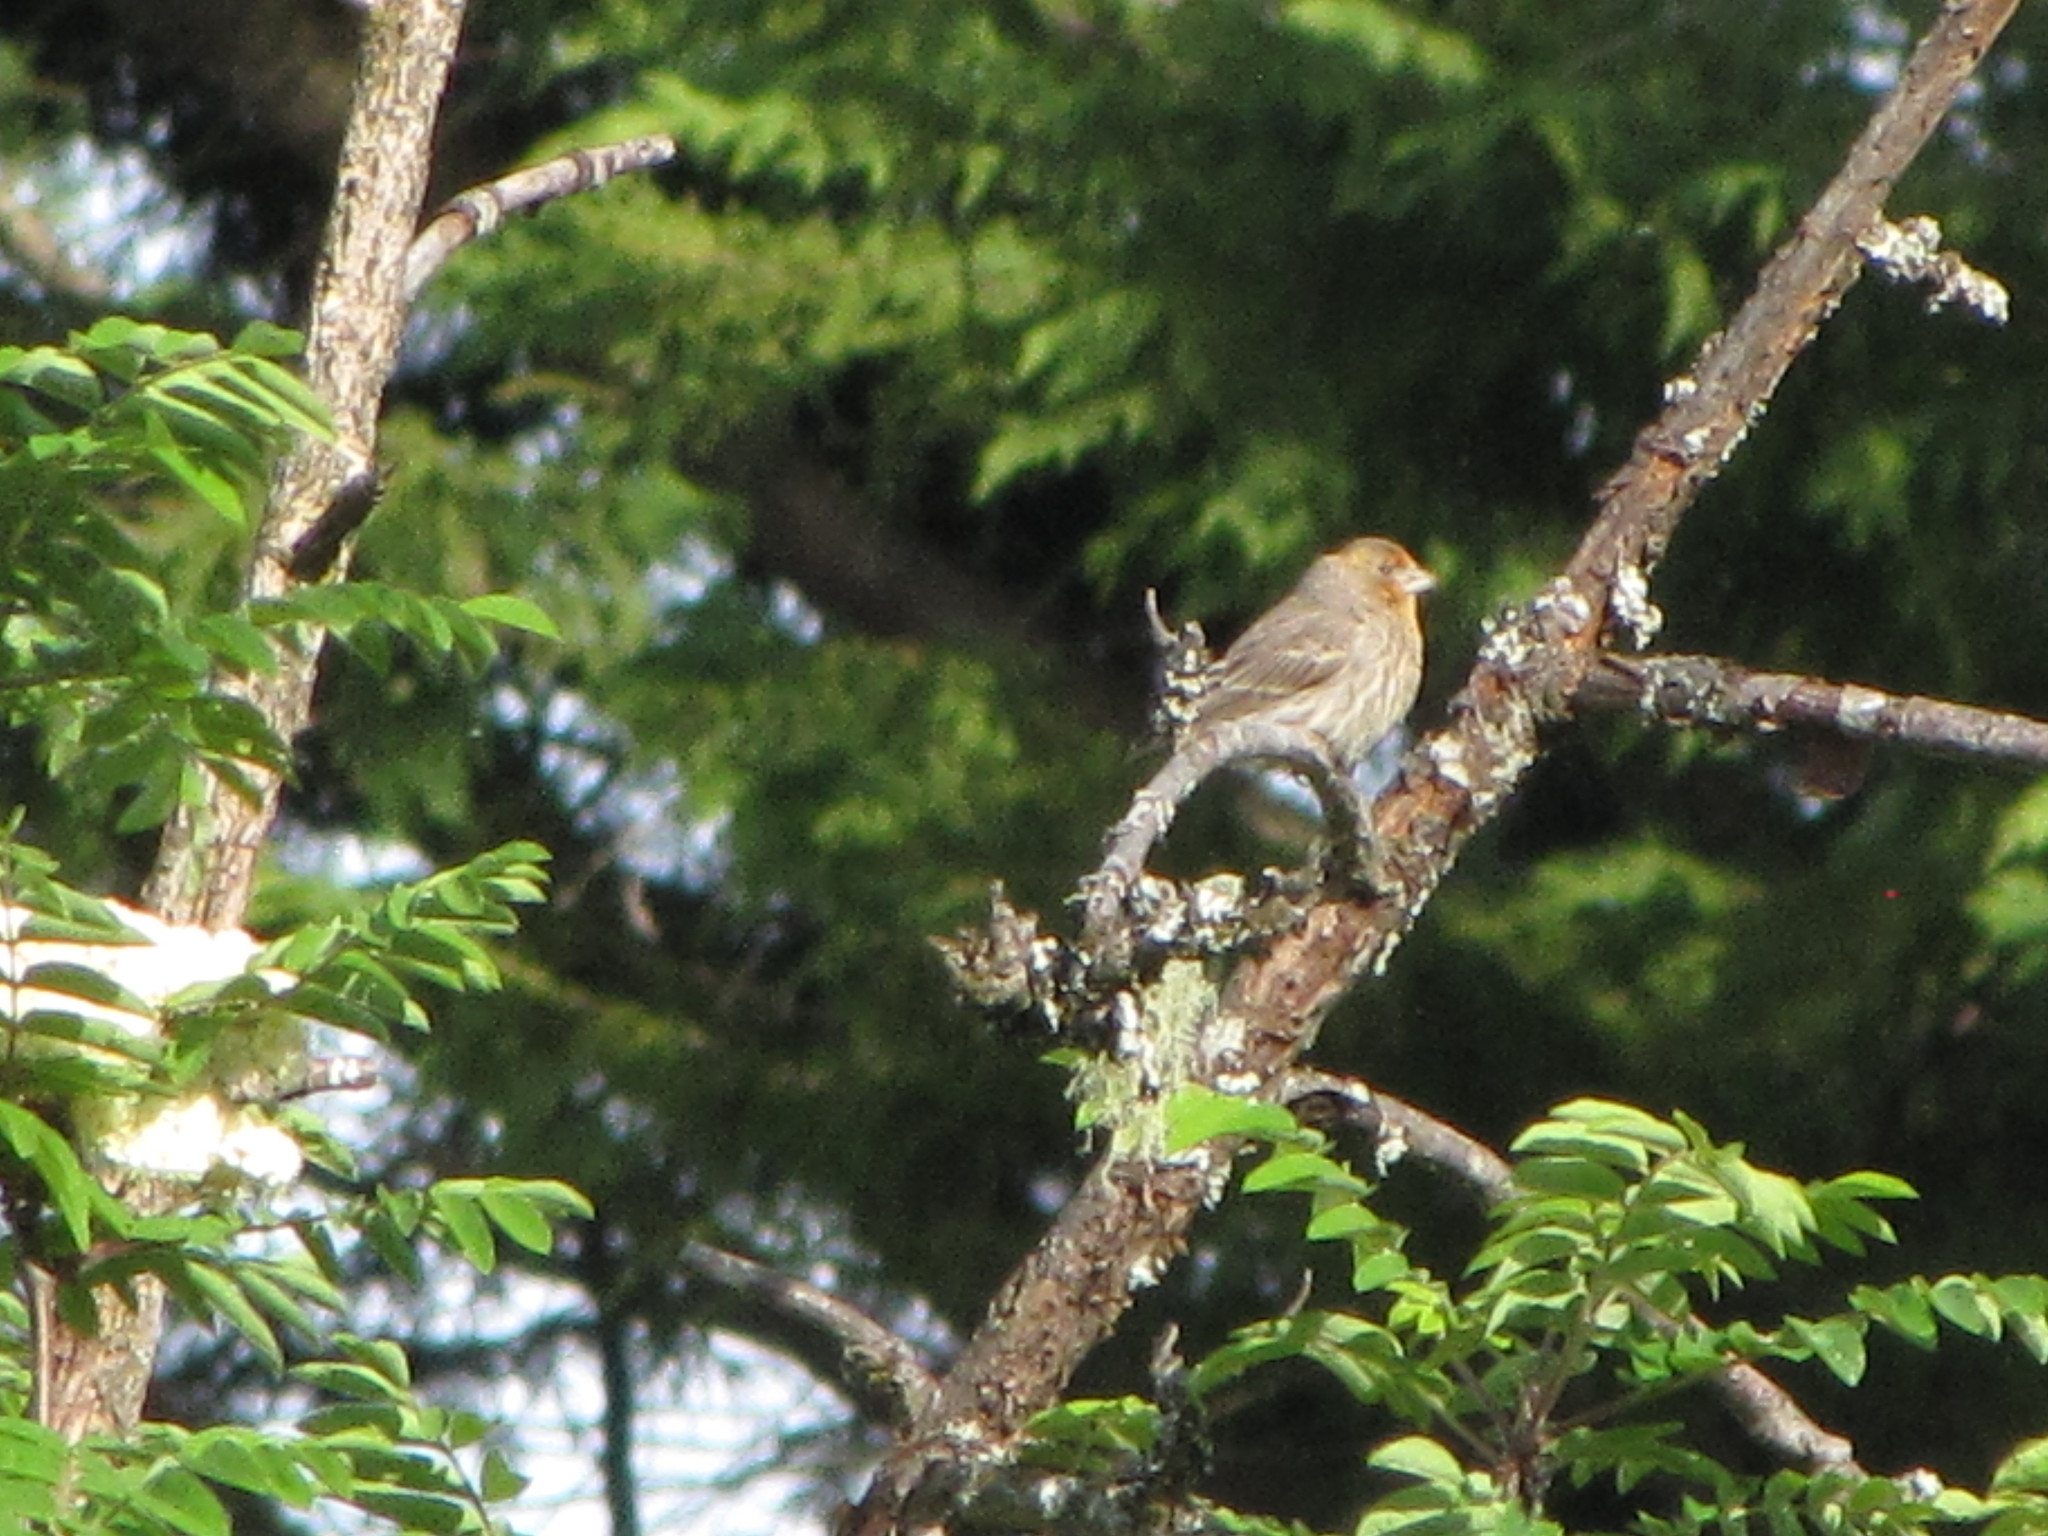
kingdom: Animalia
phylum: Chordata
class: Aves
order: Passeriformes
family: Fringillidae
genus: Haemorhous
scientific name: Haemorhous mexicanus
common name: House finch
